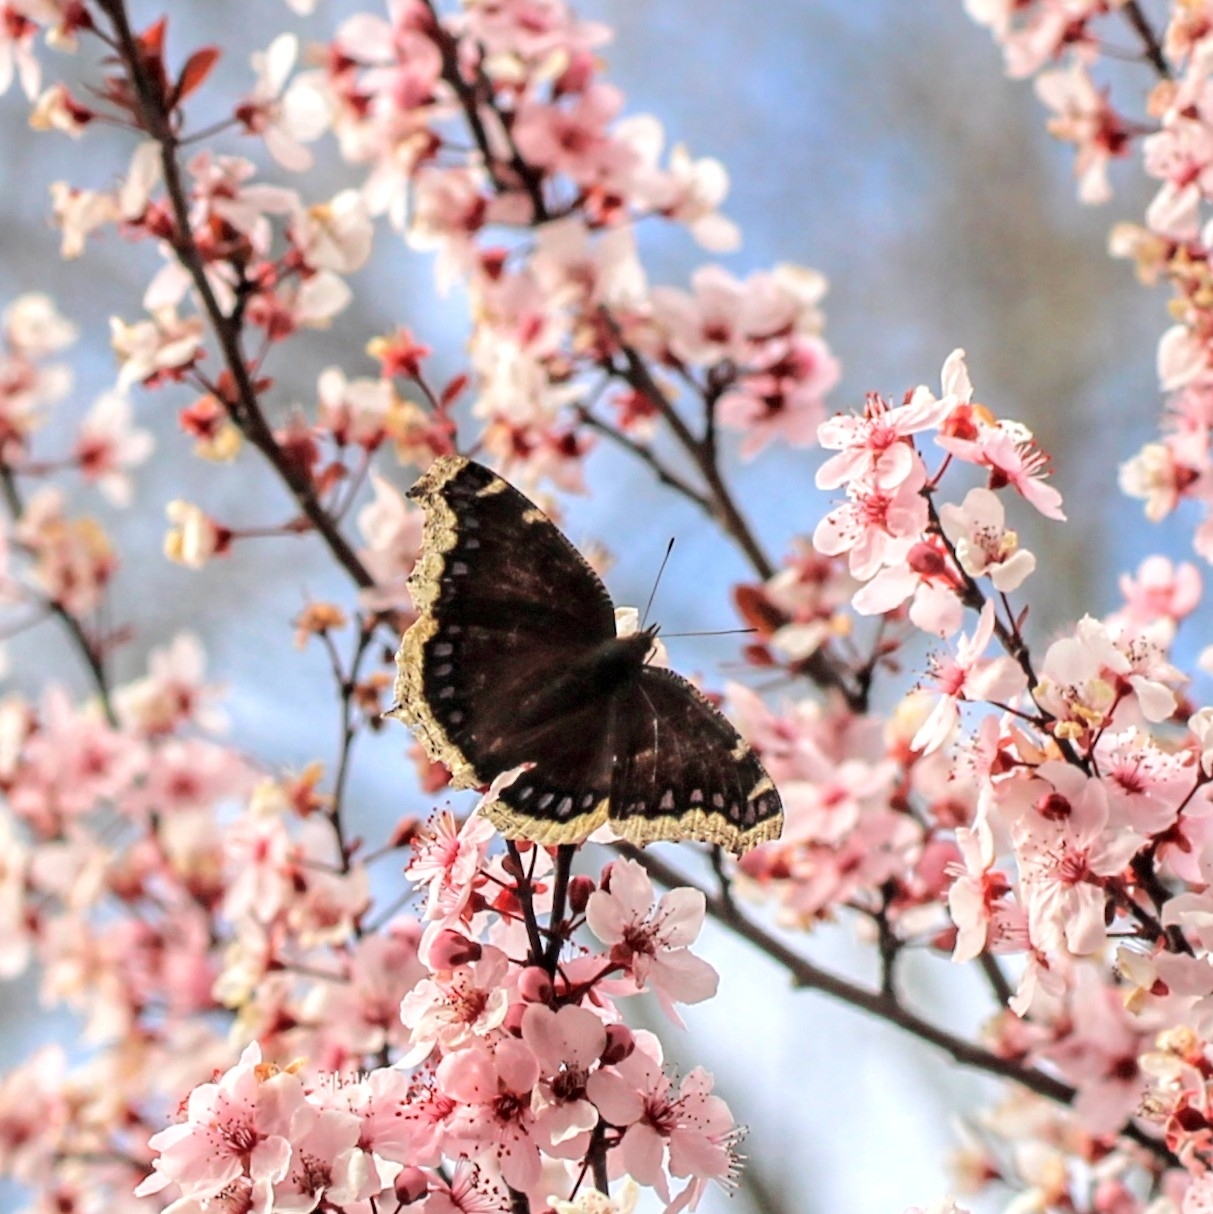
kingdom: Animalia
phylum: Arthropoda
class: Insecta
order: Lepidoptera
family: Nymphalidae
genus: Nymphalis
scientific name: Nymphalis antiopa
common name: Camberwell beauty
